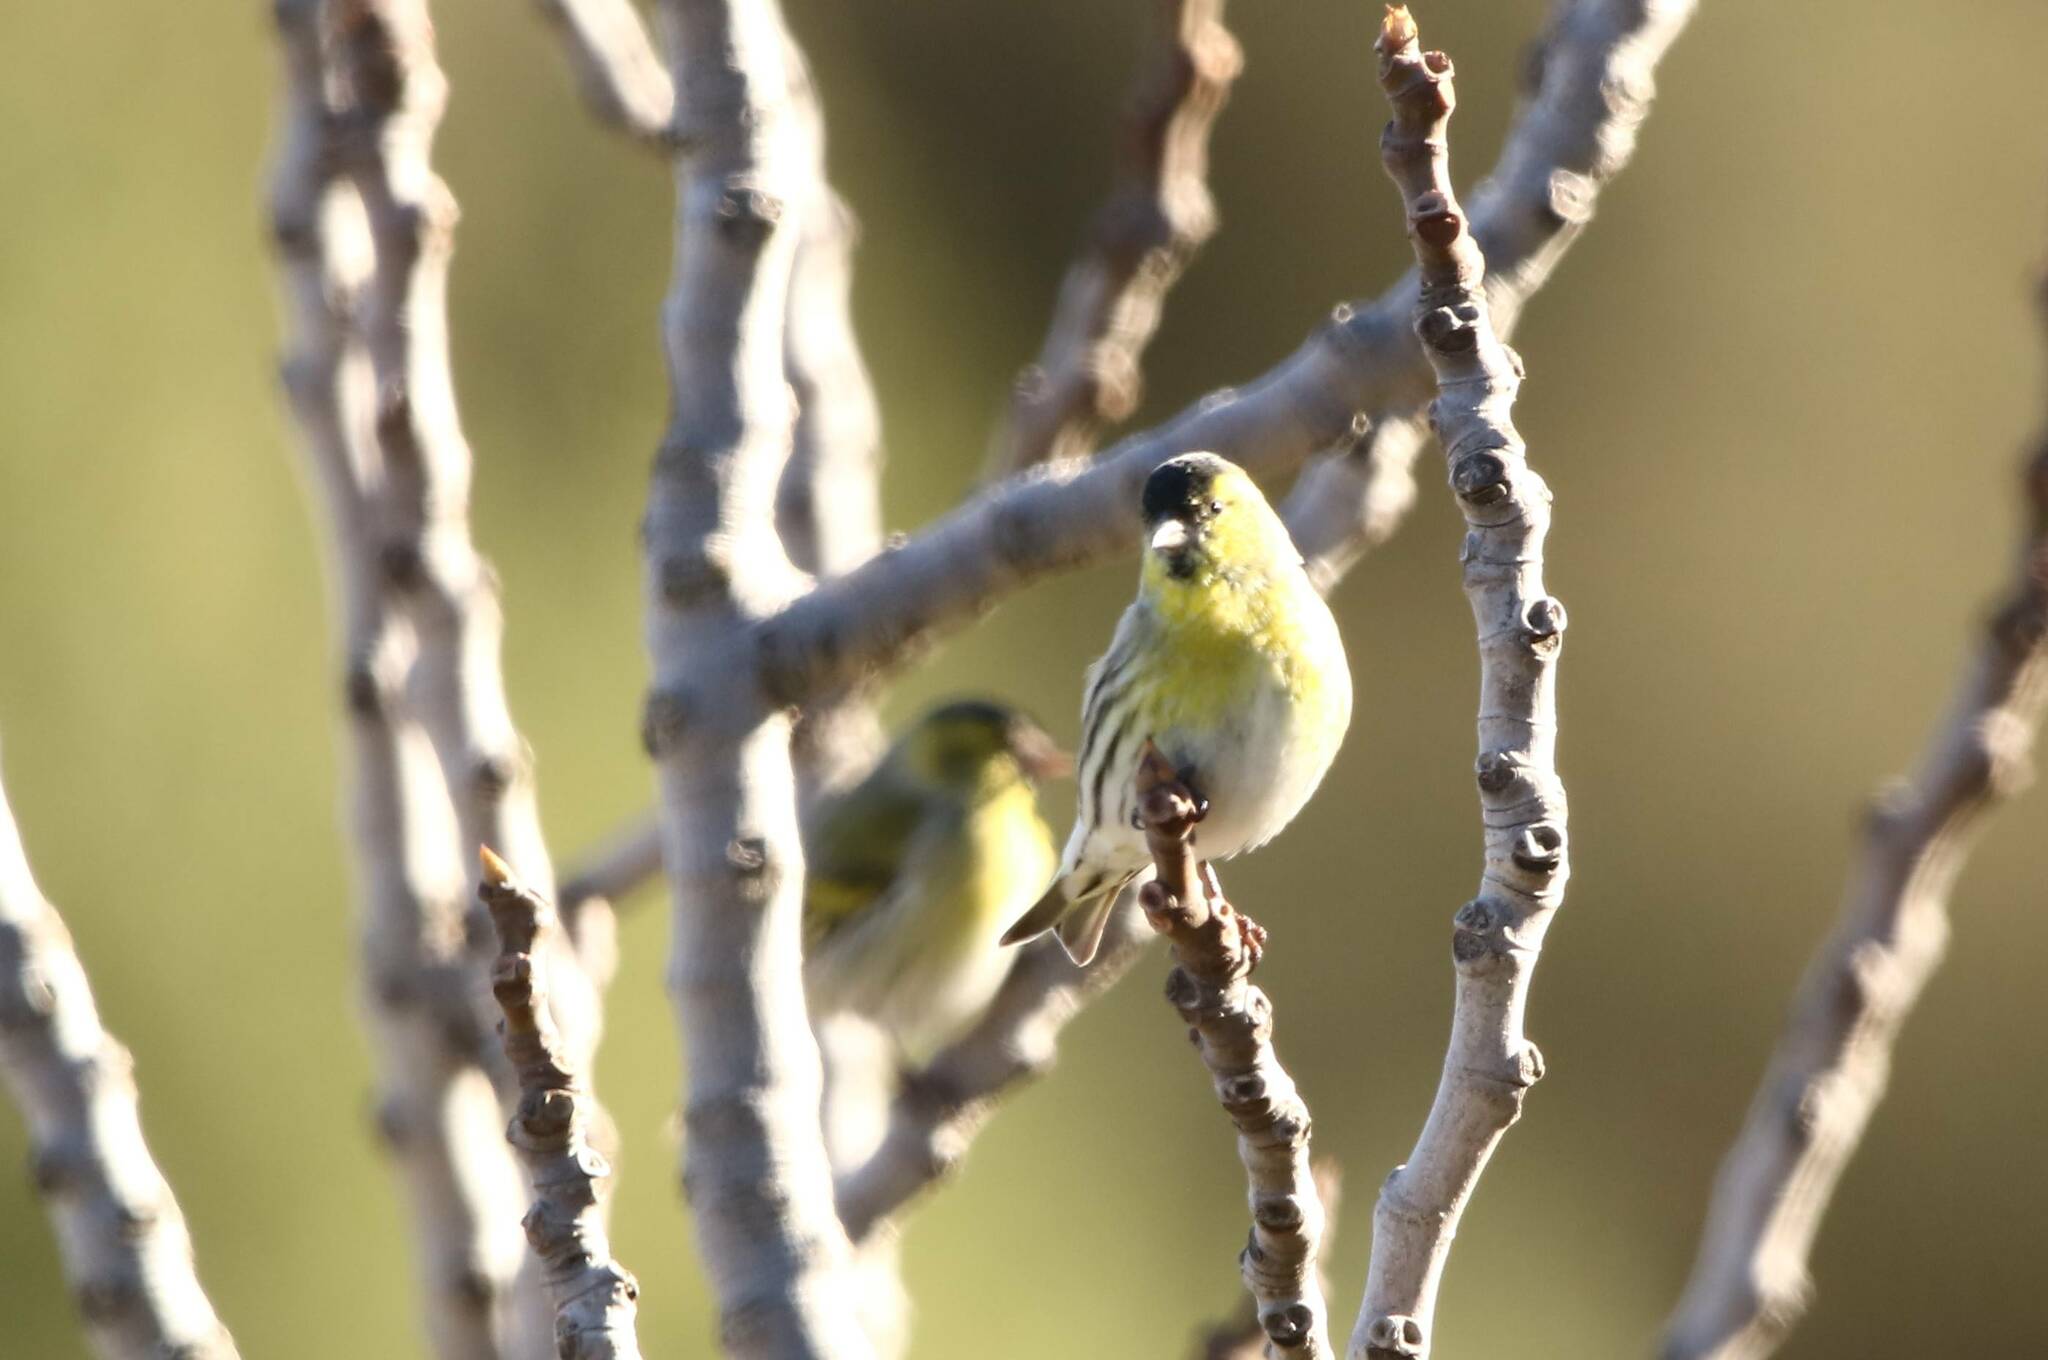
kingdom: Animalia
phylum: Chordata
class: Aves
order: Passeriformes
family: Fringillidae
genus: Spinus
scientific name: Spinus spinus
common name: Eurasian siskin
